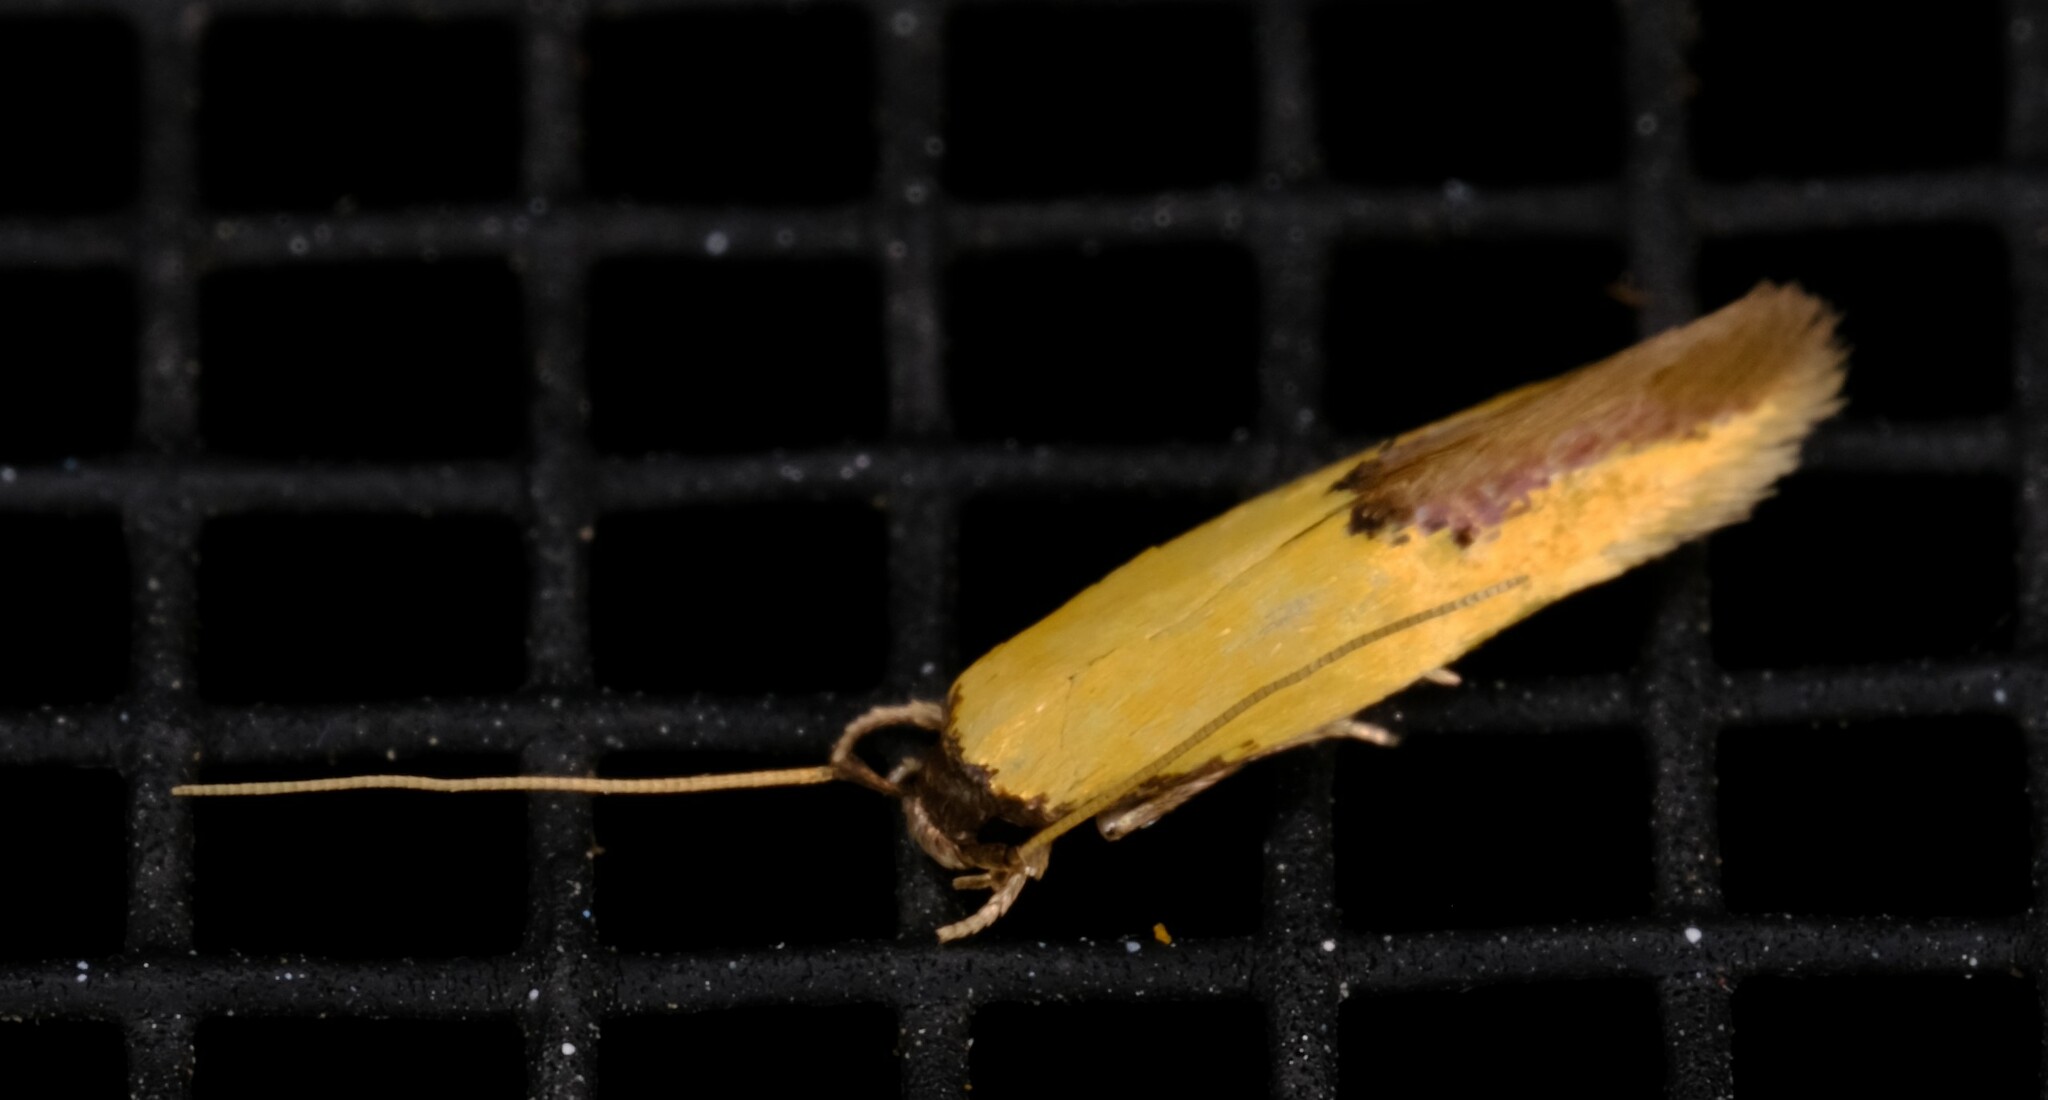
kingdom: Animalia
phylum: Arthropoda
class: Insecta
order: Lepidoptera
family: Tineidae
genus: Opogona
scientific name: Opogona protodoxa
